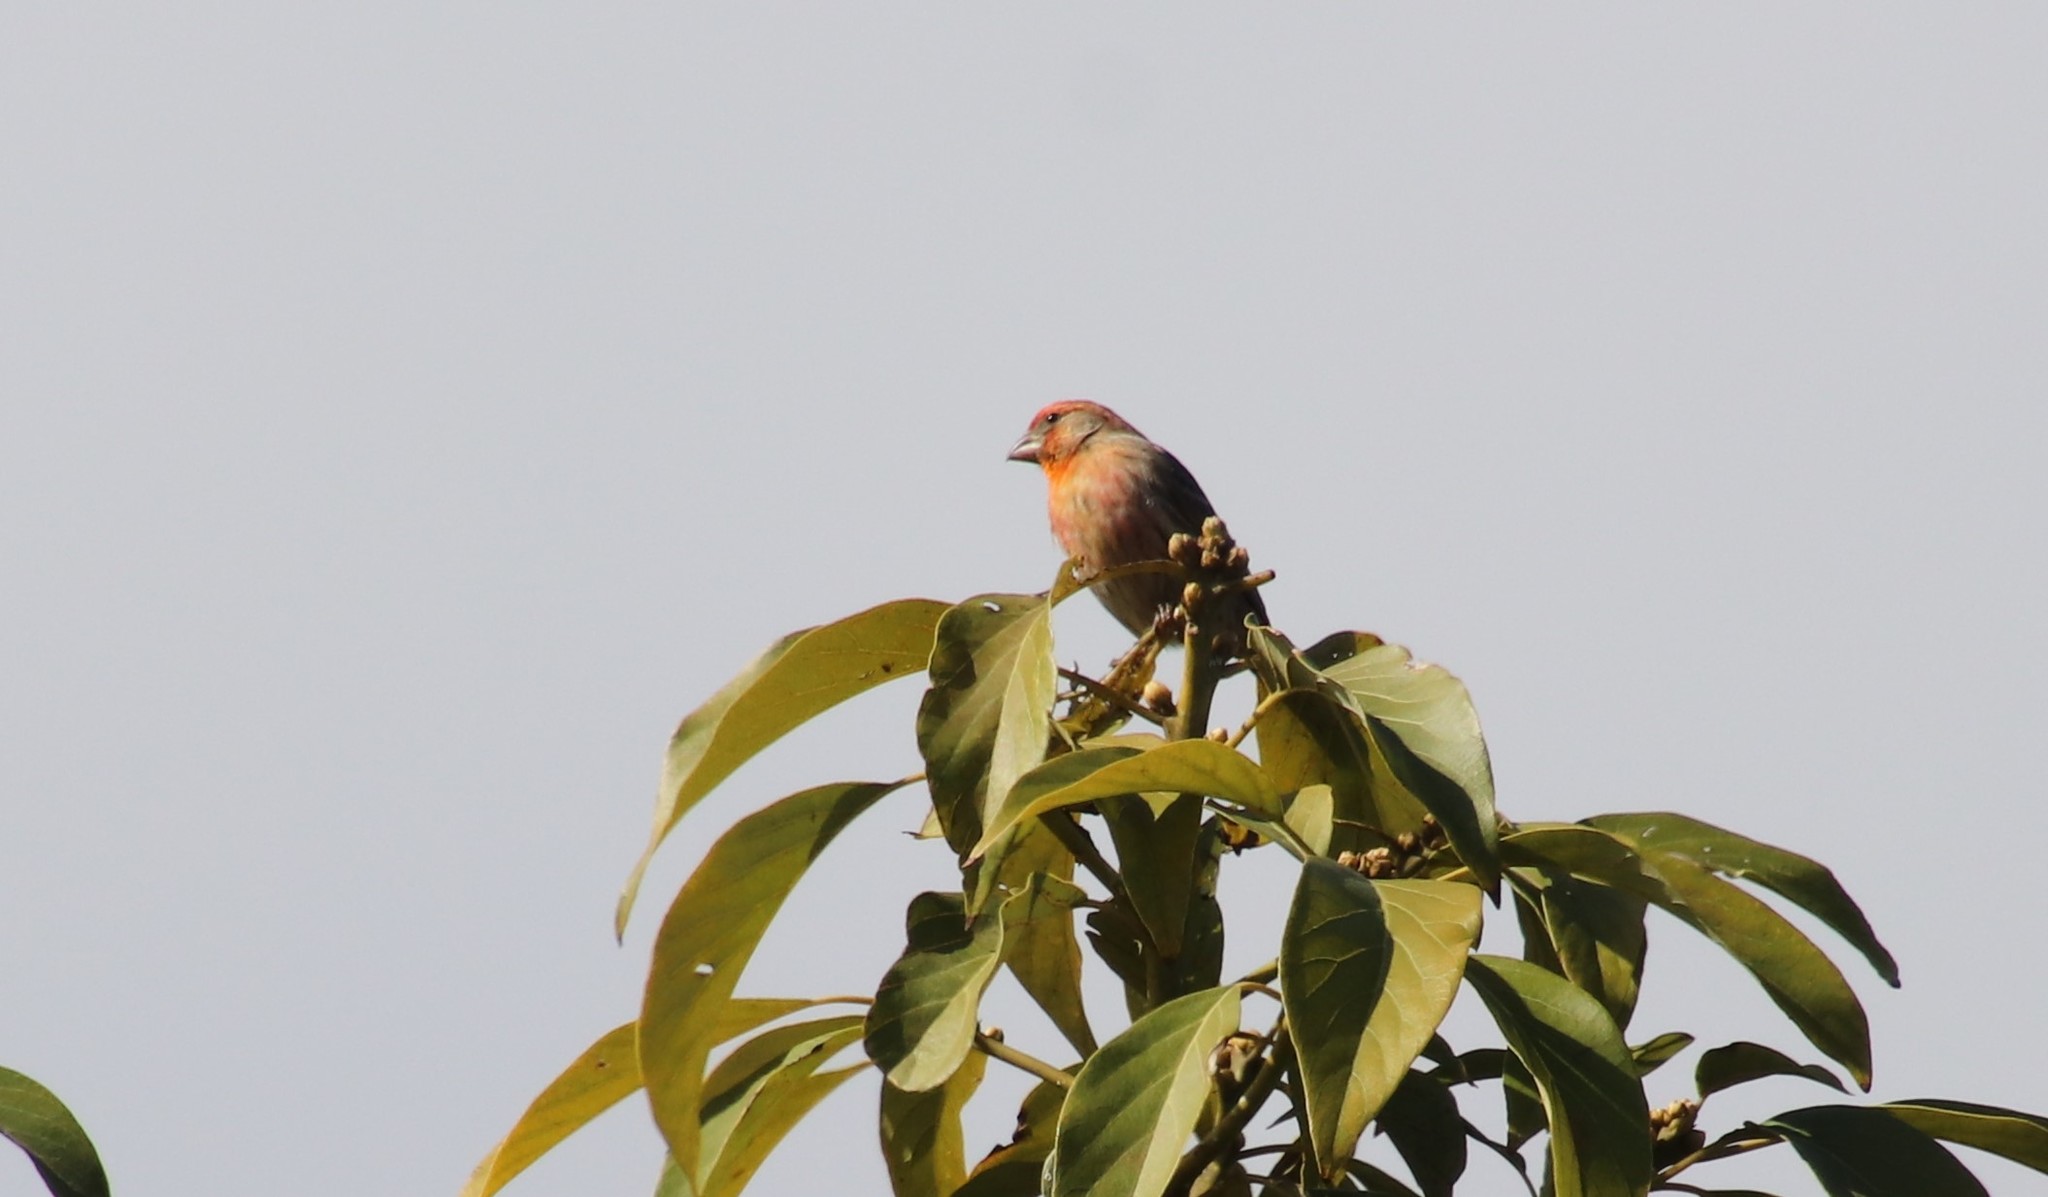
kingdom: Animalia
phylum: Chordata
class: Aves
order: Passeriformes
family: Fringillidae
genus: Haemorhous
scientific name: Haemorhous mexicanus
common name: House finch
